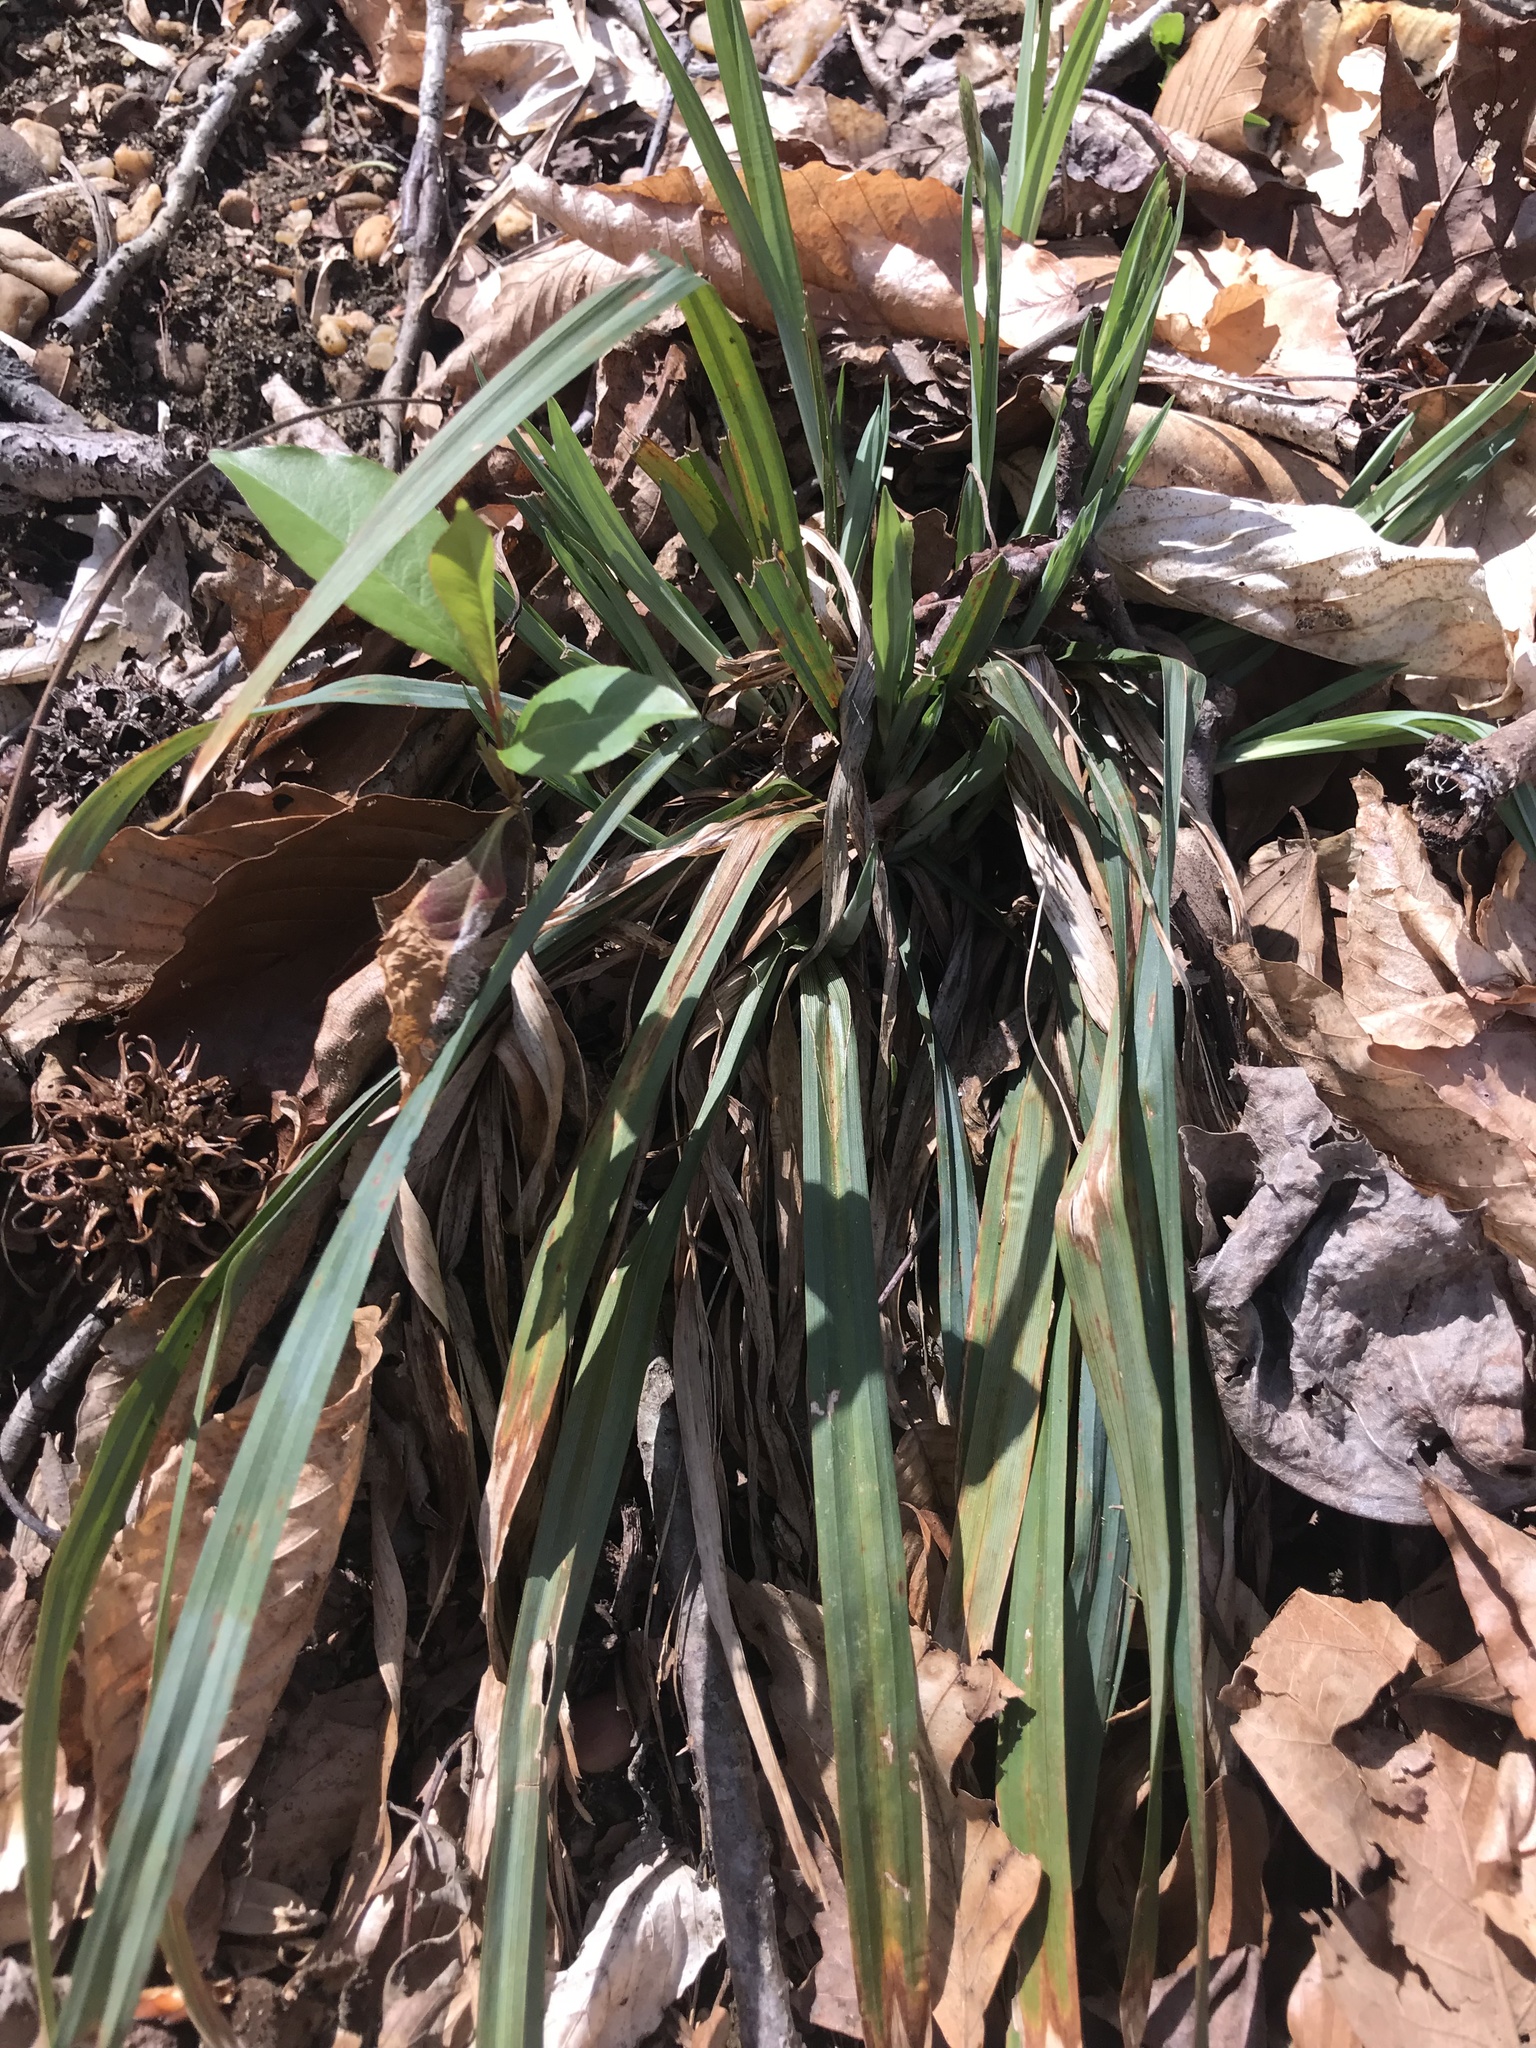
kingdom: Plantae
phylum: Tracheophyta
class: Liliopsida
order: Poales
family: Cyperaceae
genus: Carex
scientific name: Carex glaucodea
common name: Blue sedge
